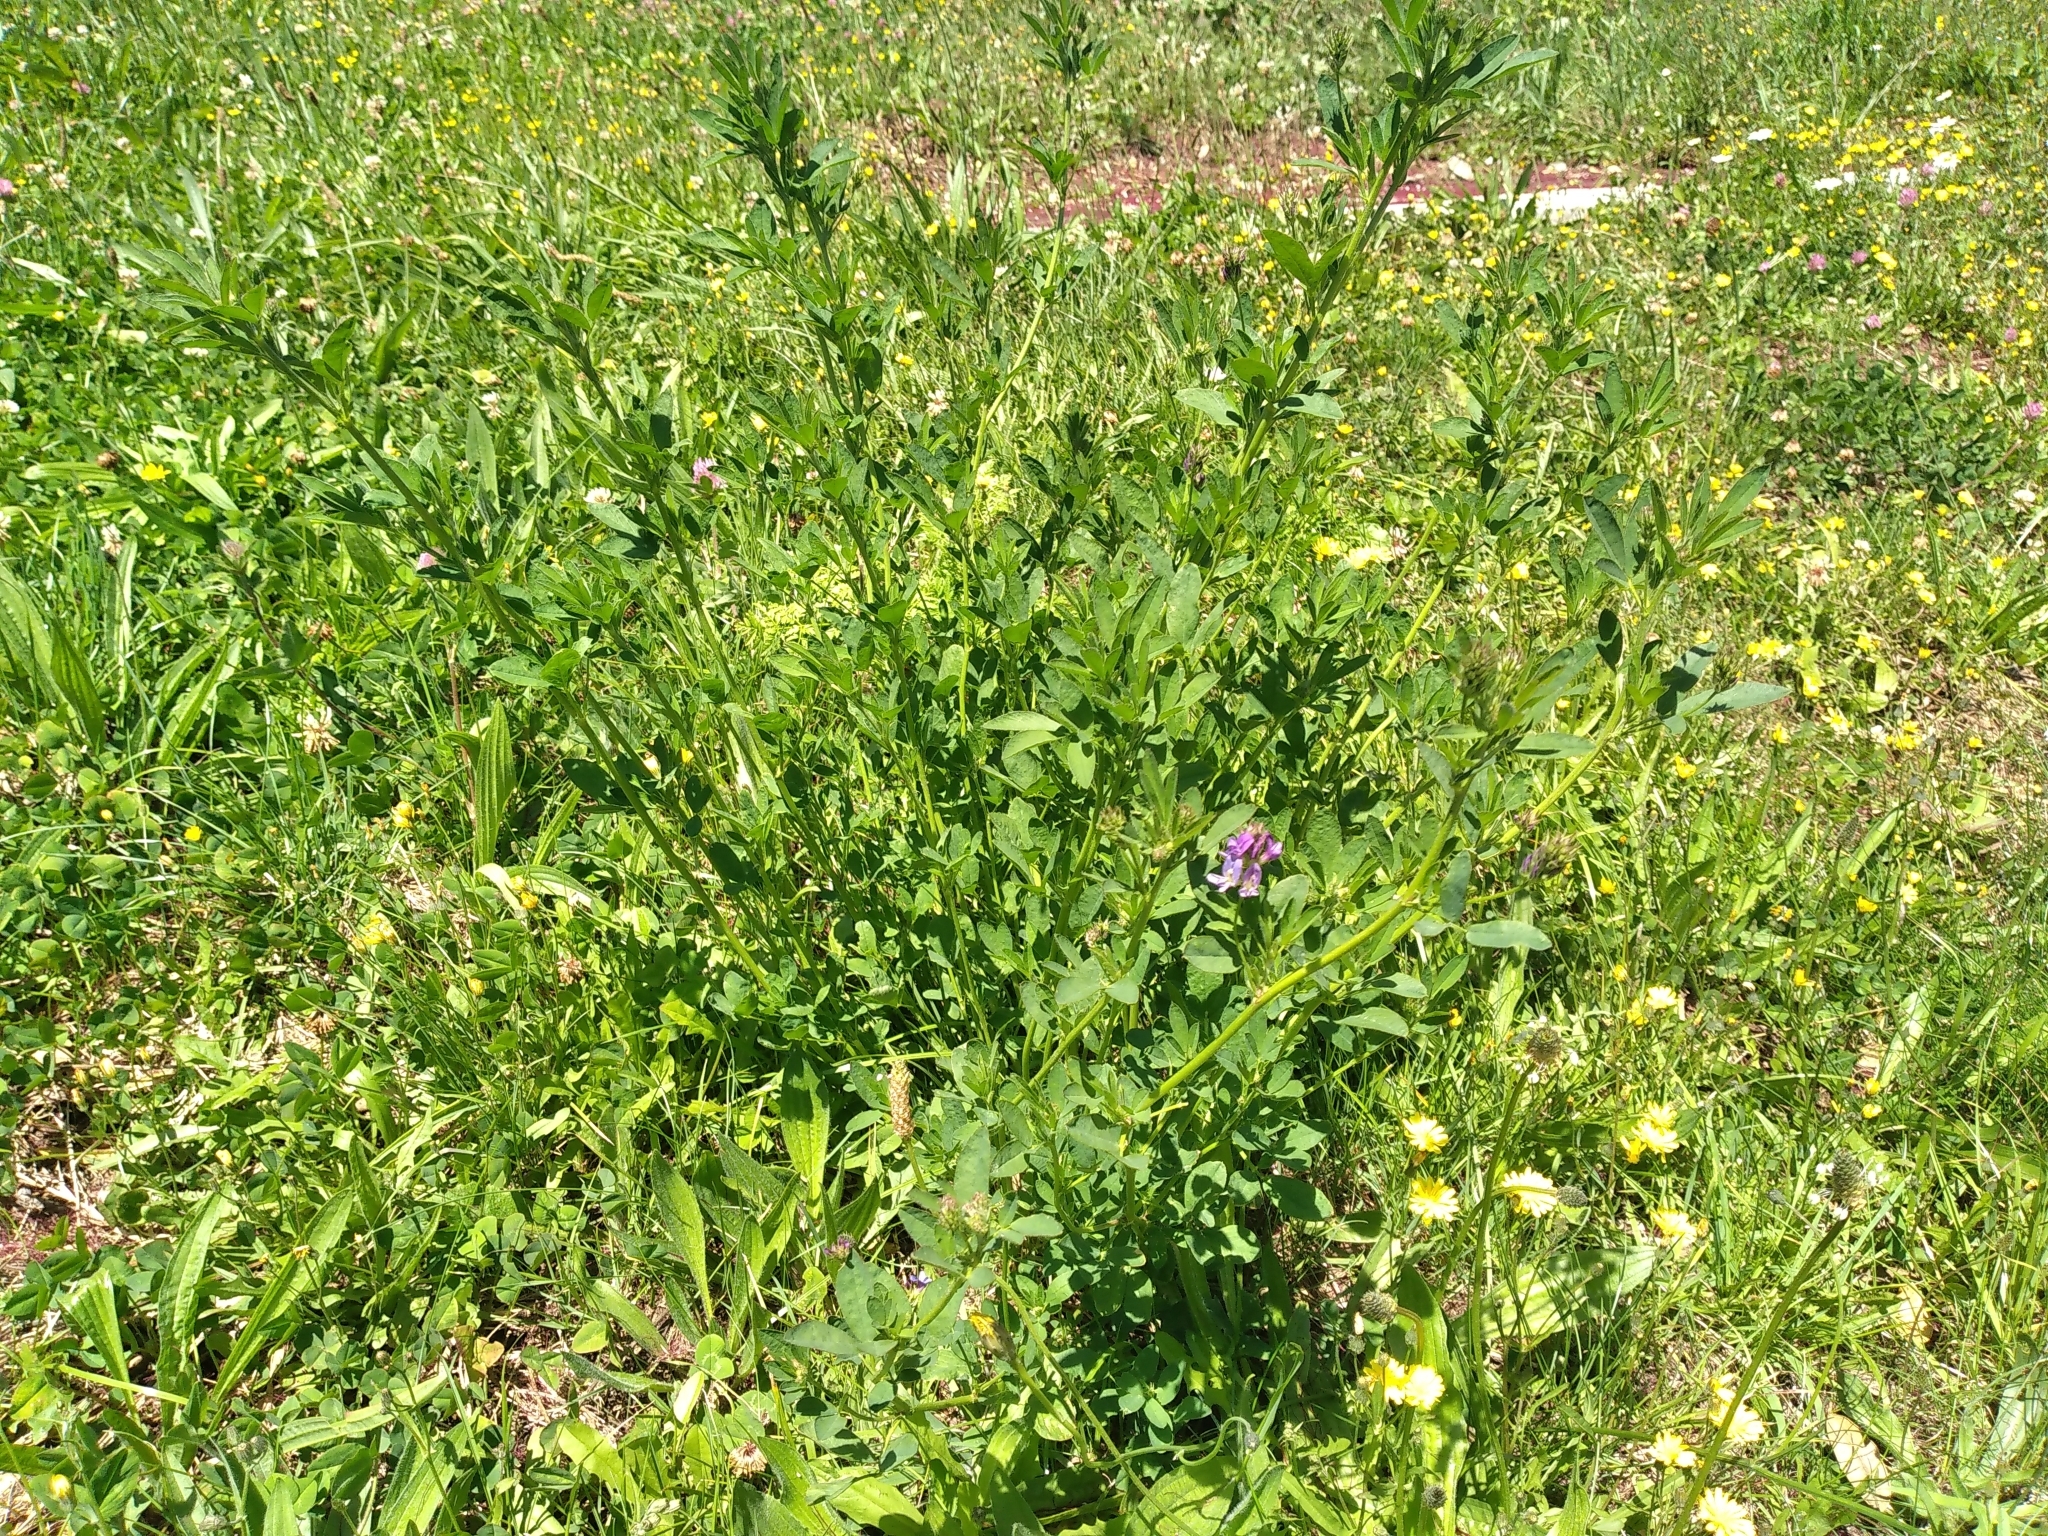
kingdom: Plantae
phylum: Tracheophyta
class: Magnoliopsida
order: Fabales
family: Fabaceae
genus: Medicago
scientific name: Medicago sativa
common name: Alfalfa
